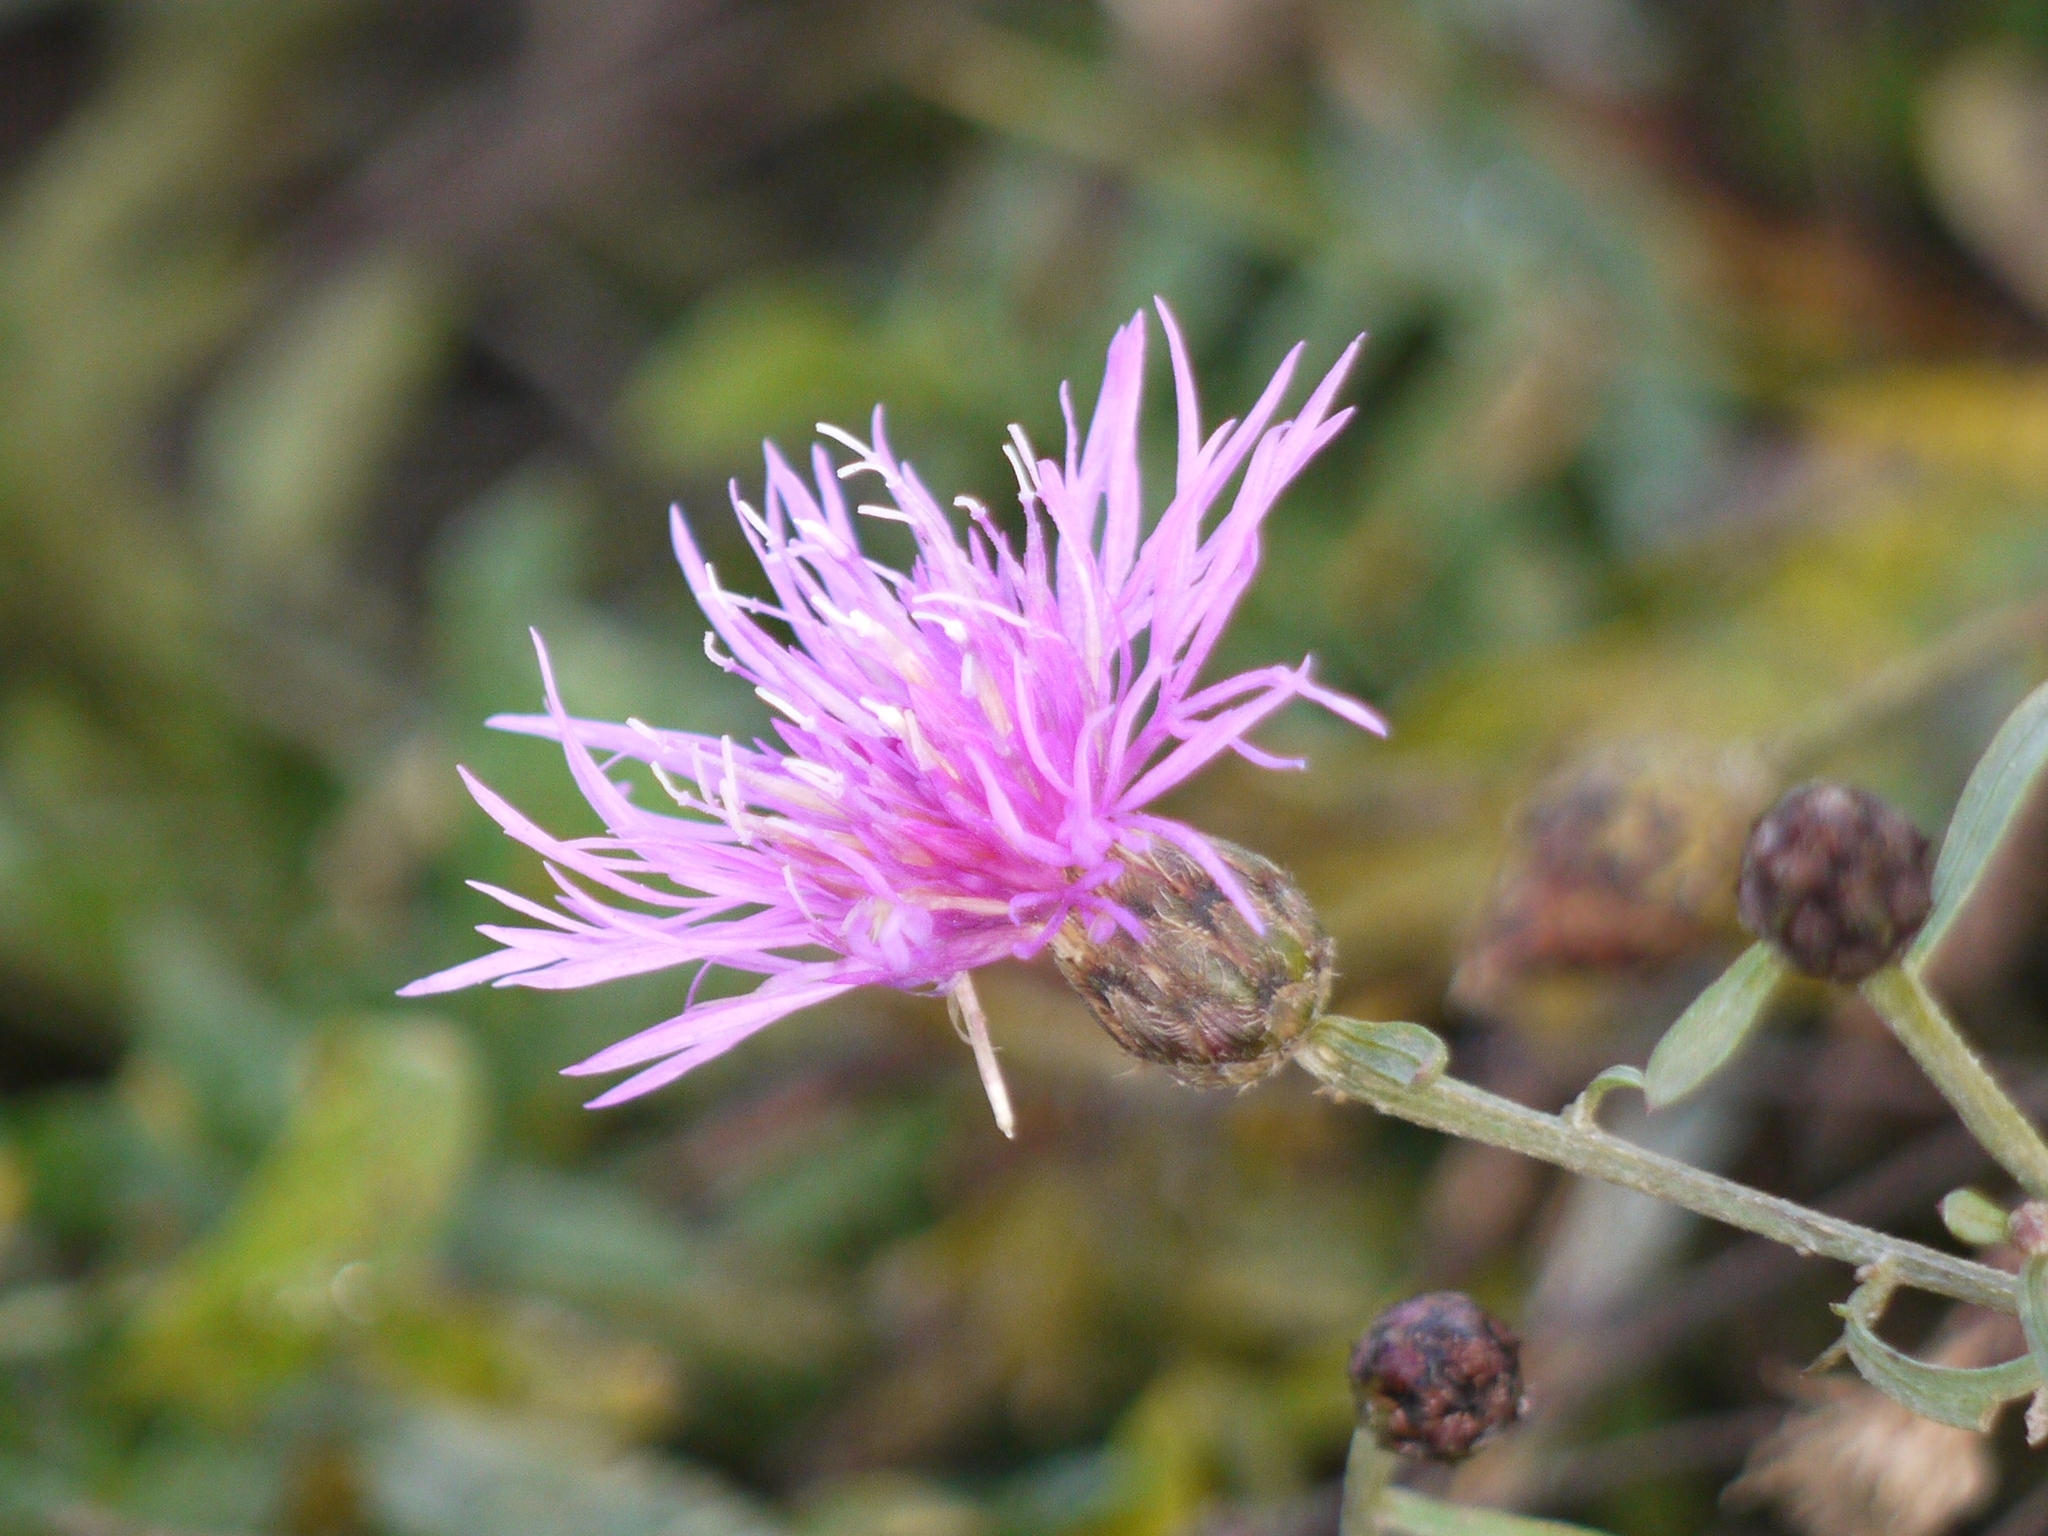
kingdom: Plantae
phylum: Tracheophyta
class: Magnoliopsida
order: Asterales
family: Asteraceae
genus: Centaurea
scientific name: Centaurea stoebe
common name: Spotted knapweed
